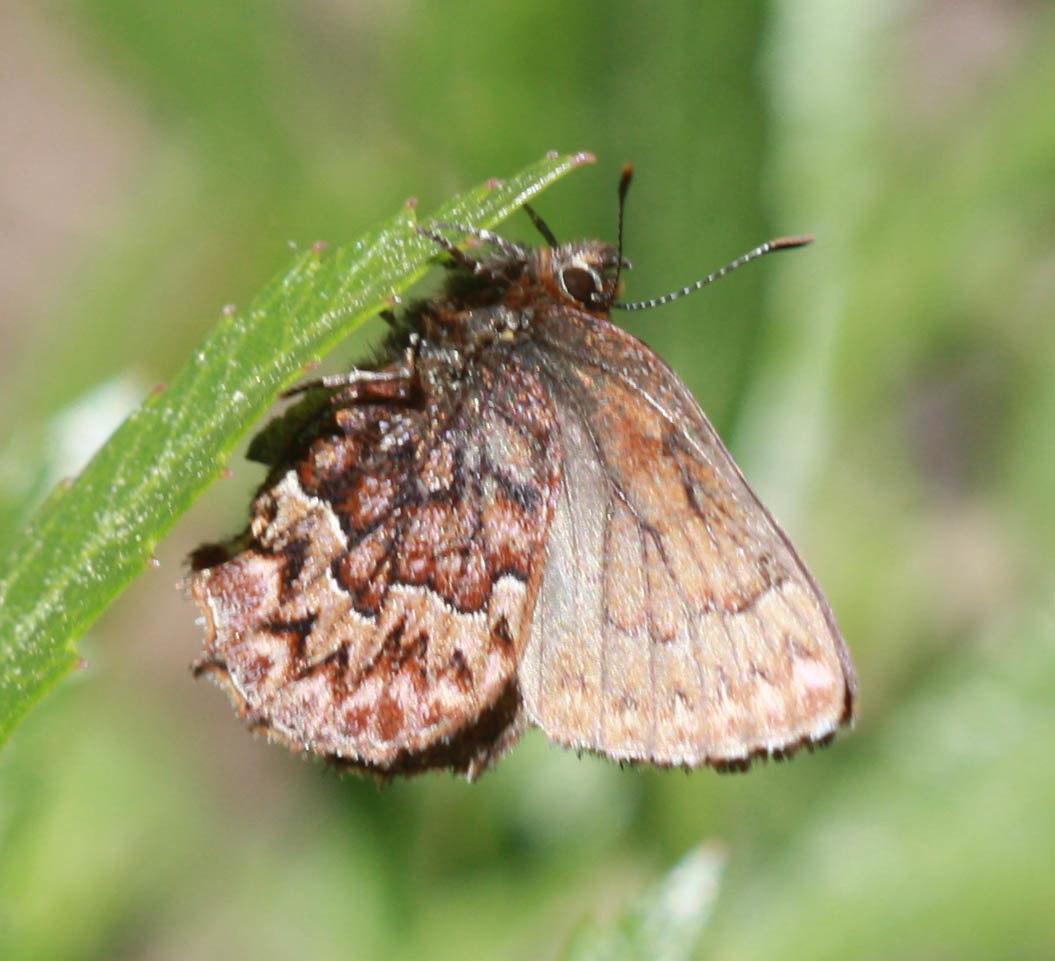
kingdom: Animalia
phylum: Arthropoda
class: Insecta
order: Lepidoptera
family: Lycaenidae
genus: Incisalia
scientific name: Incisalia eryphon
